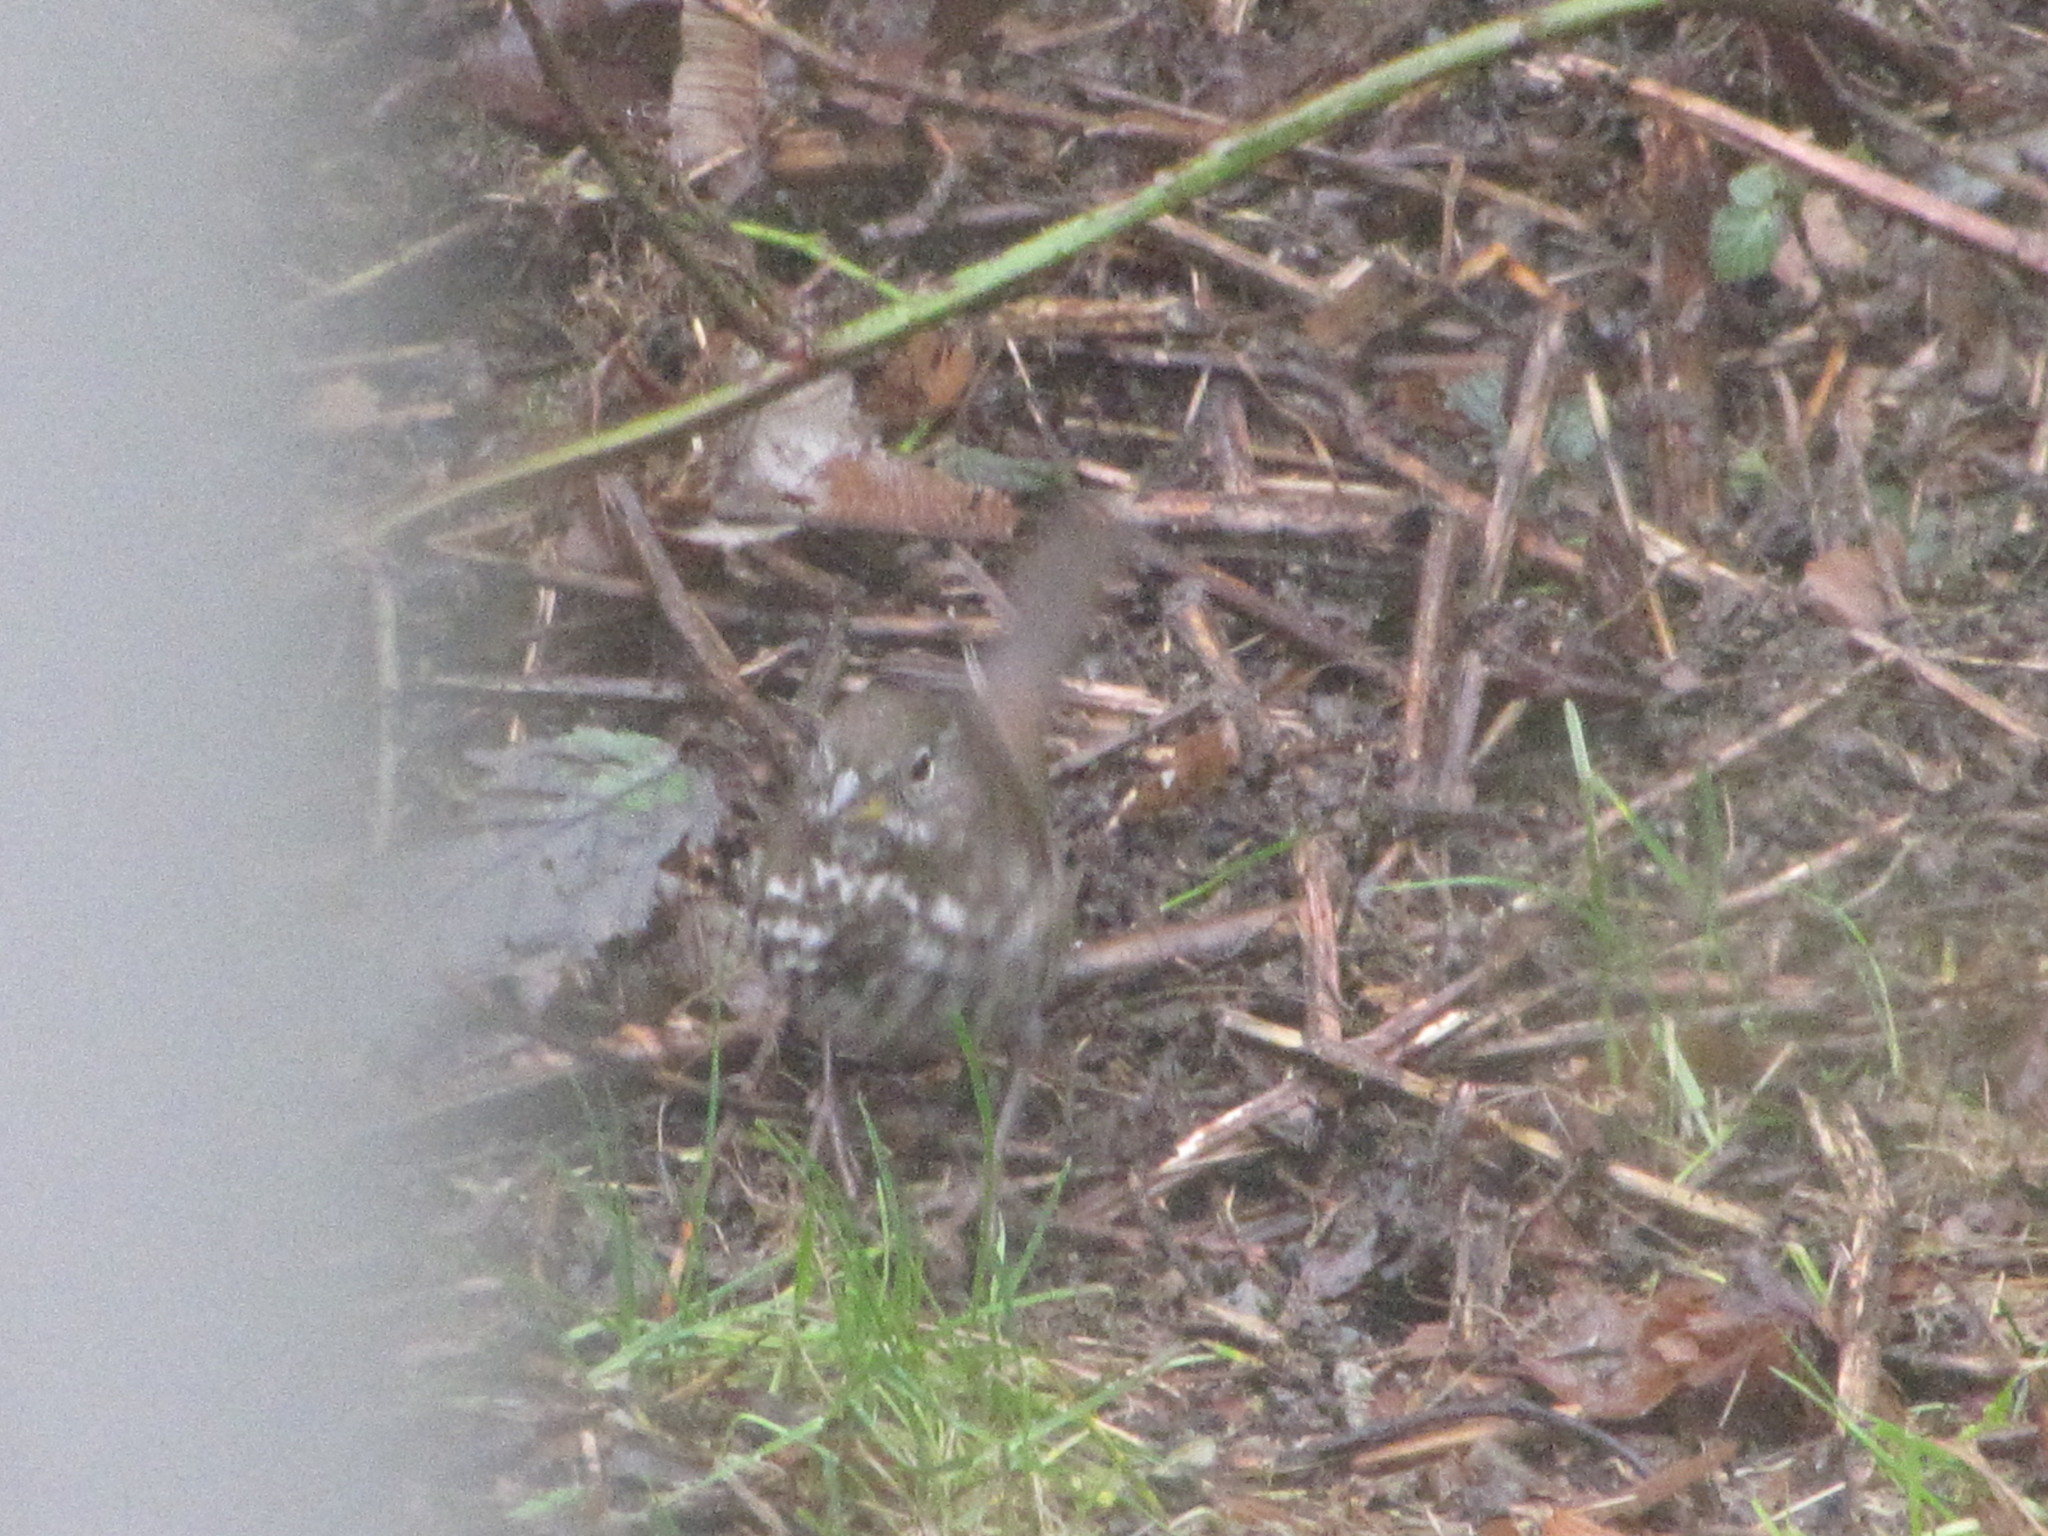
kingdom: Animalia
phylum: Chordata
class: Aves
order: Passeriformes
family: Passerellidae
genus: Passerella
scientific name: Passerella iliaca
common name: Fox sparrow
